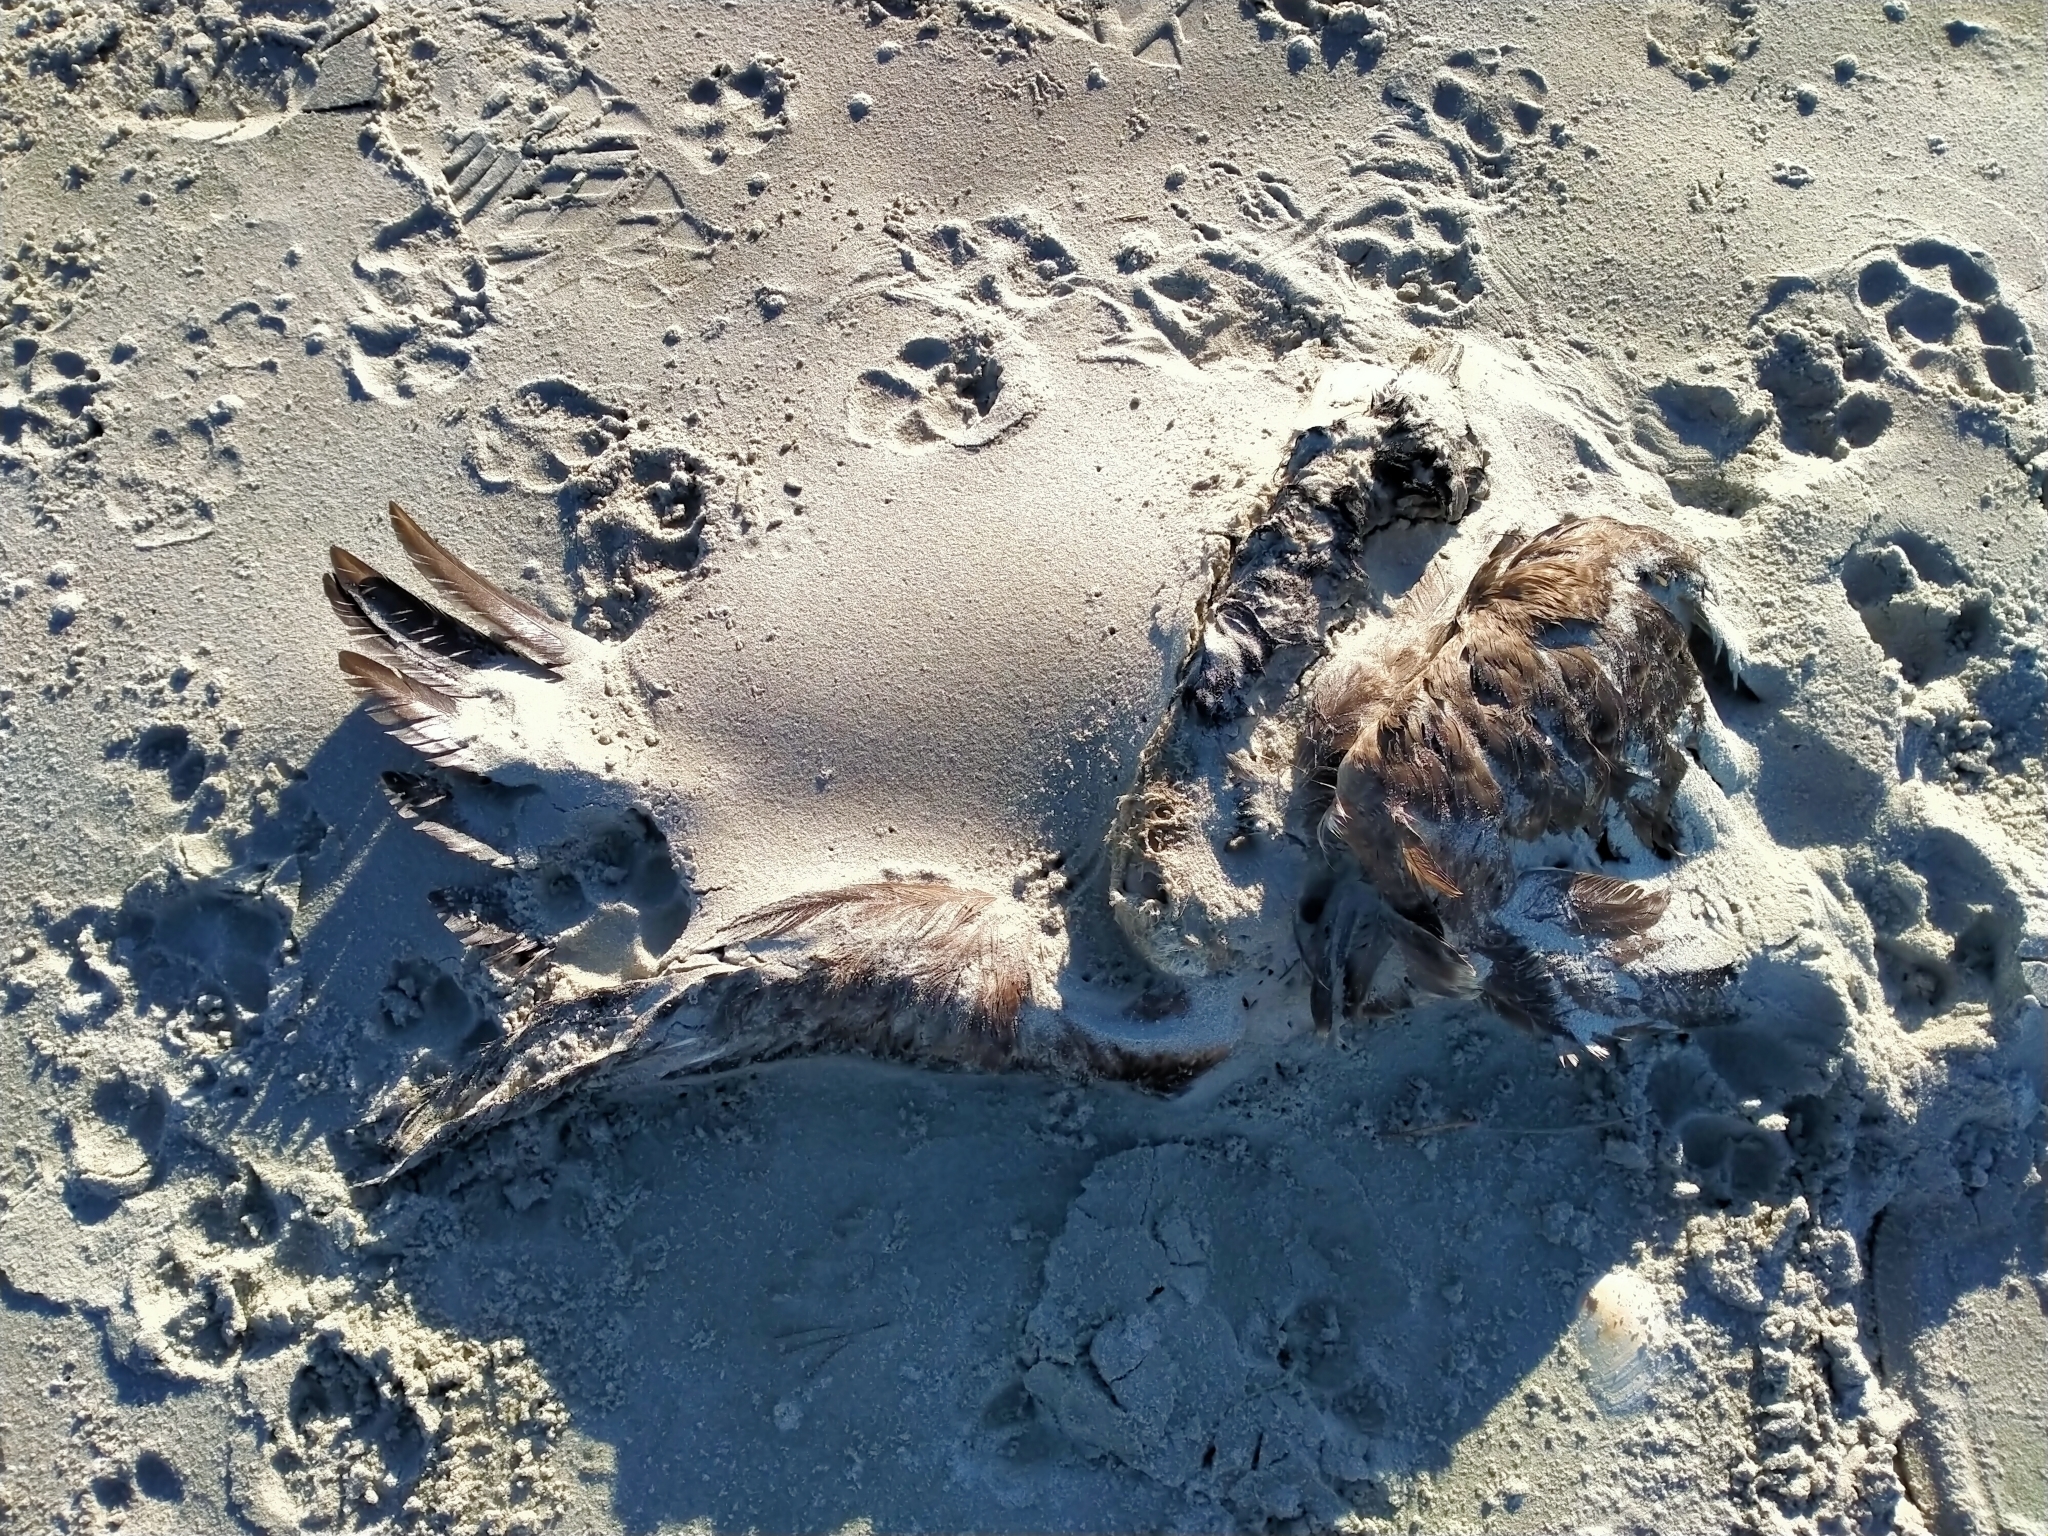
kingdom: Animalia
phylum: Chordata
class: Aves
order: Anseriformes
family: Anatidae
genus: Branta
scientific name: Branta canadensis
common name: Canada goose
